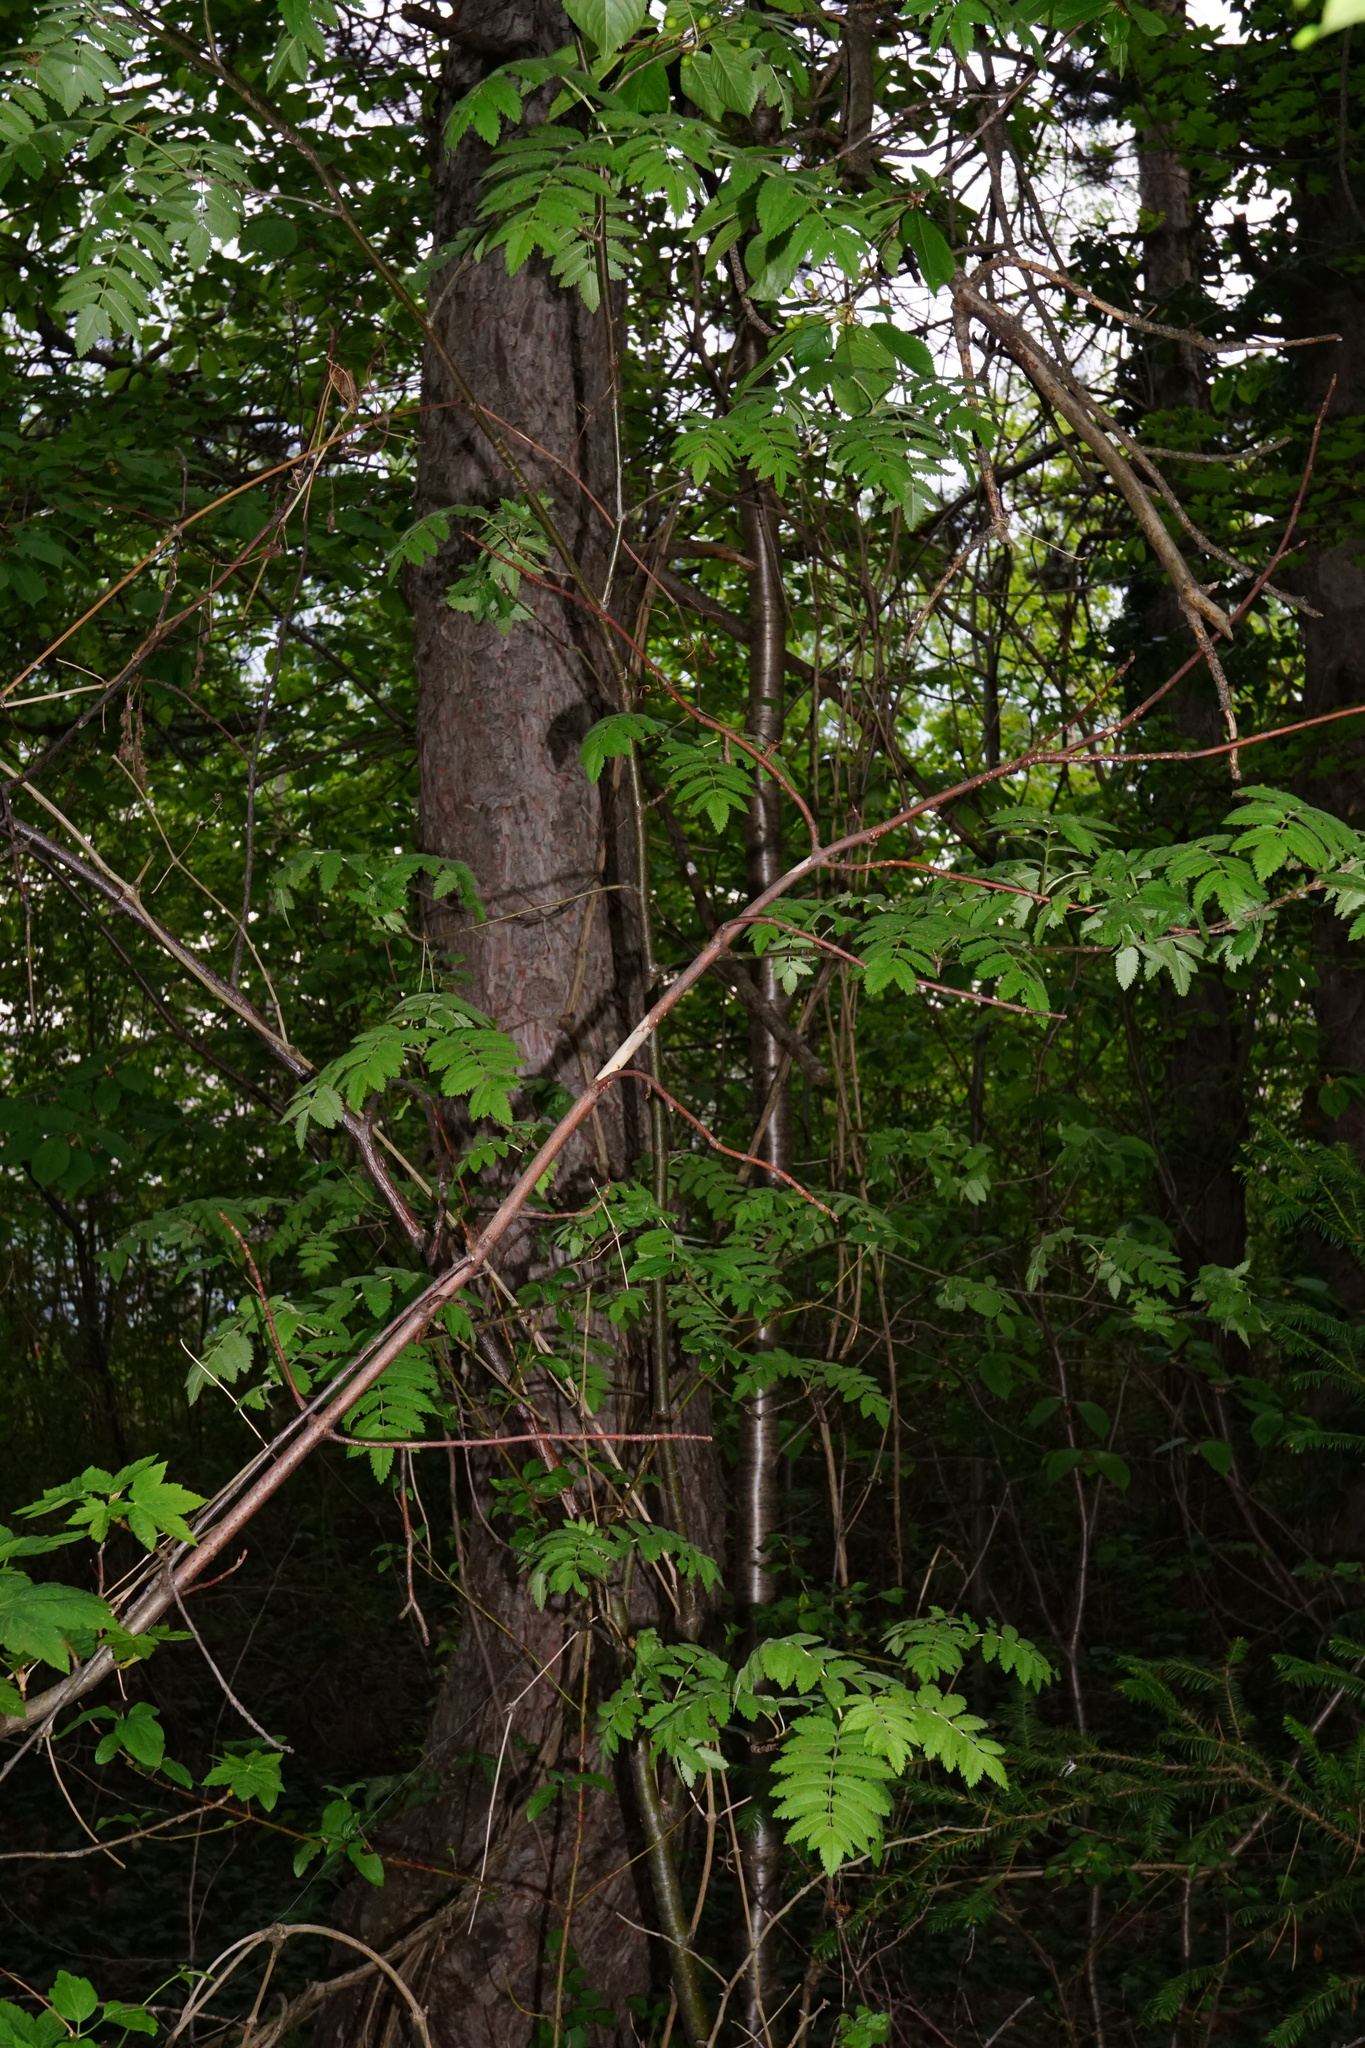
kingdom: Plantae
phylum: Tracheophyta
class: Magnoliopsida
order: Rosales
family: Rosaceae
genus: Sorbus
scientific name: Sorbus aucuparia
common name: Rowan
